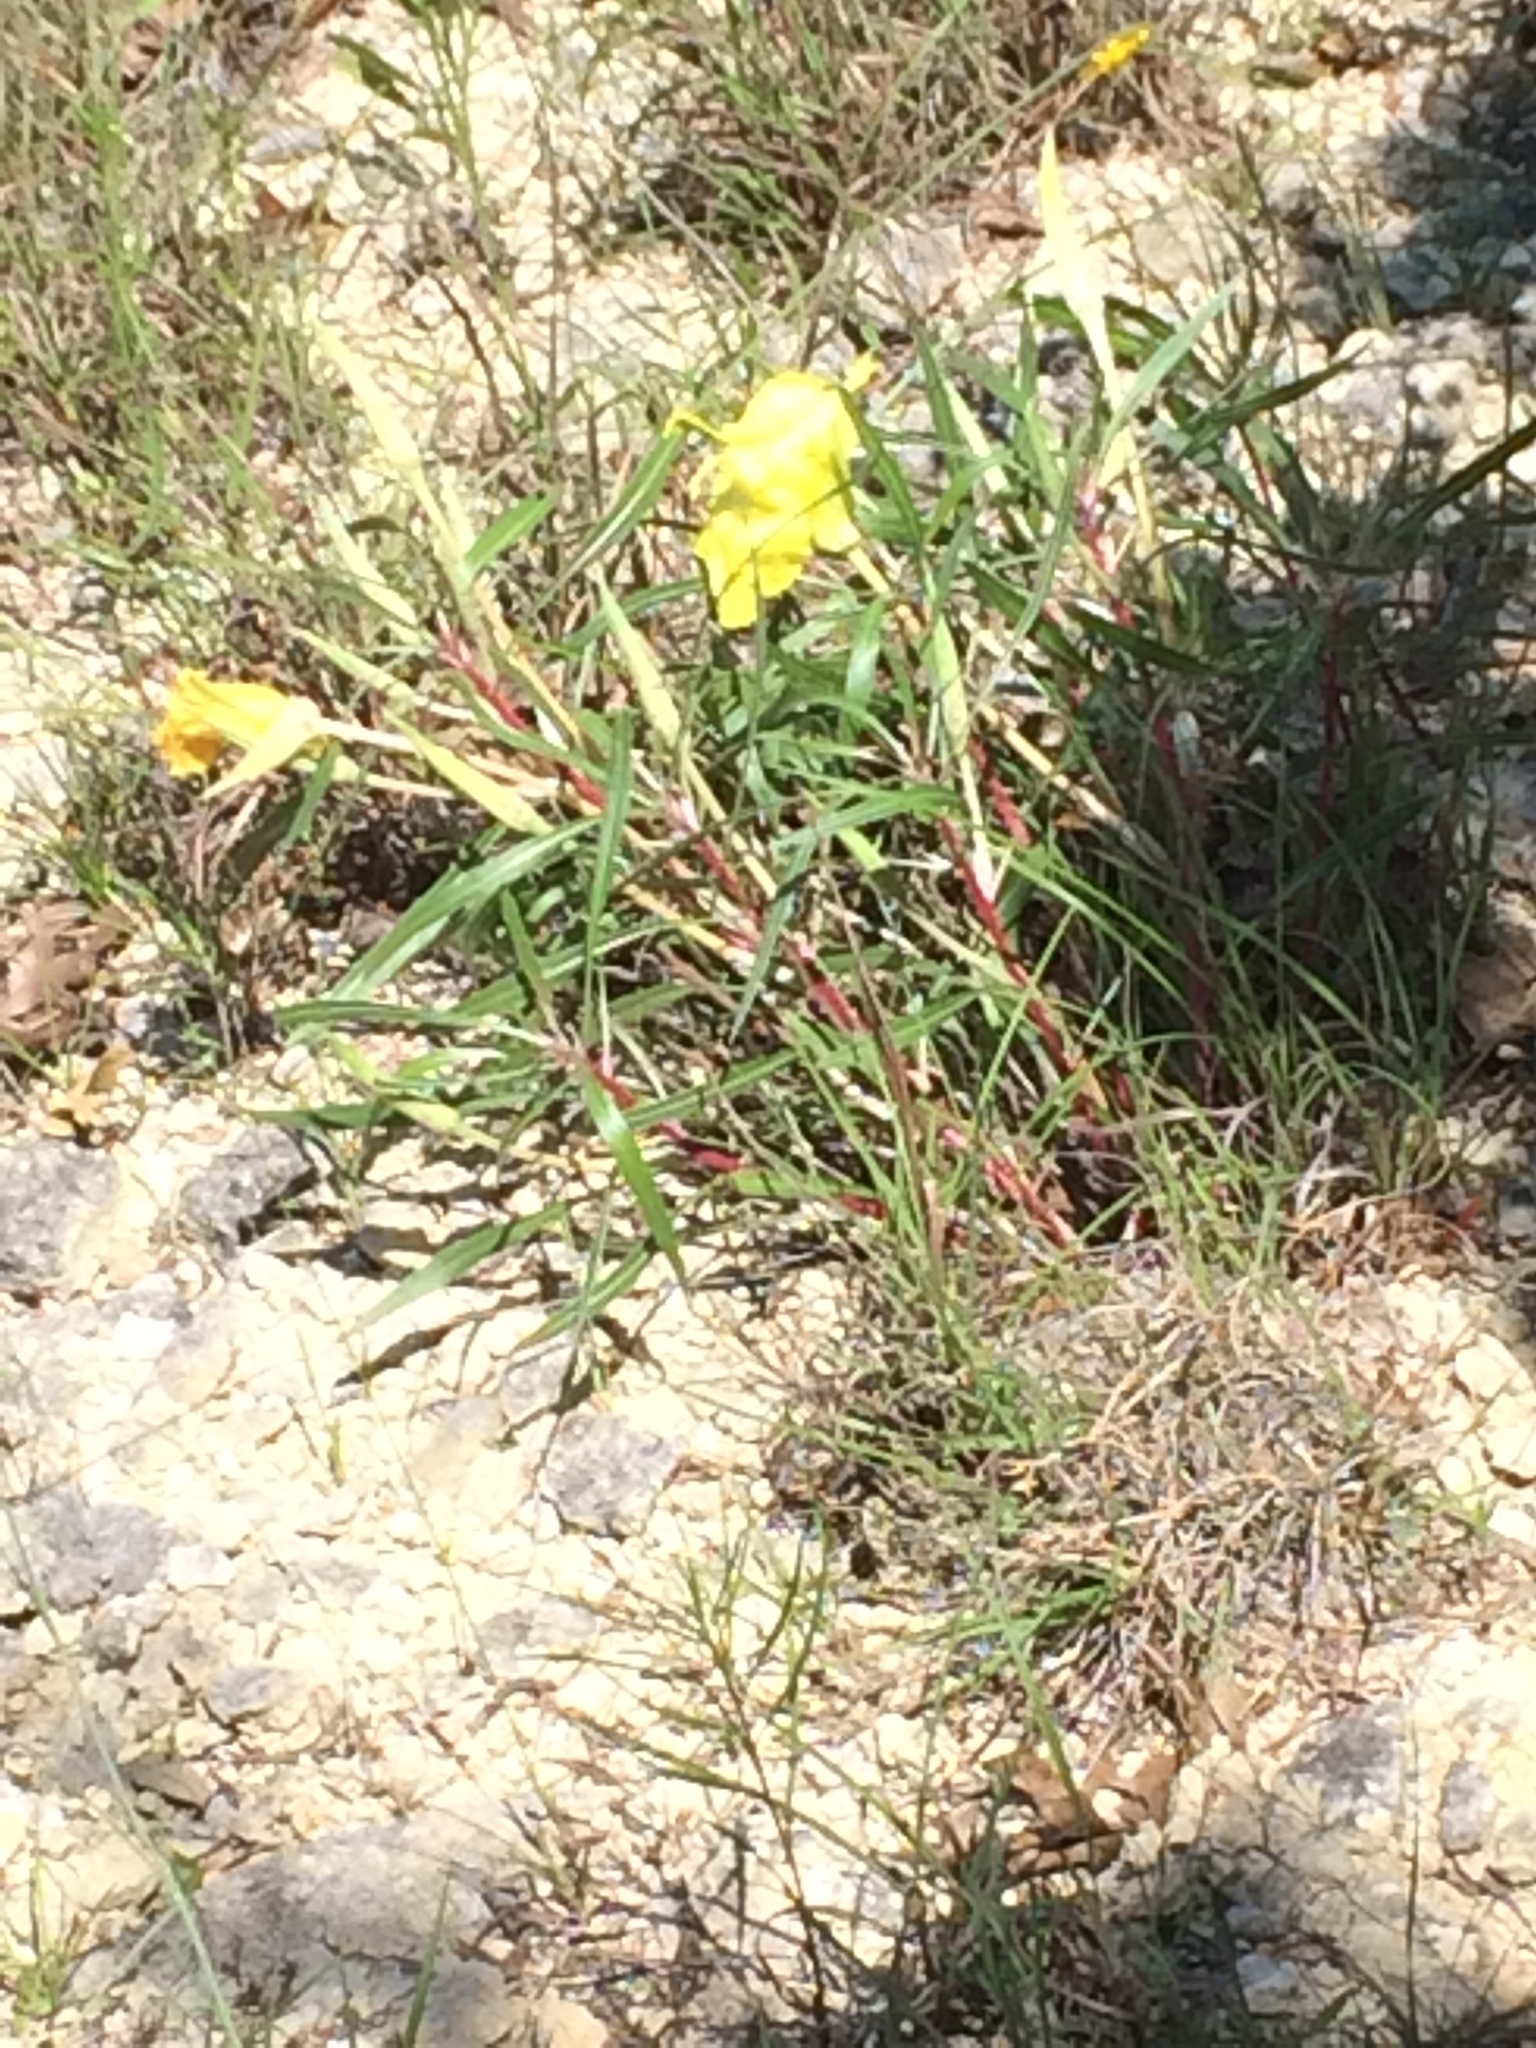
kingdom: Plantae
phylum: Tracheophyta
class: Magnoliopsida
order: Myrtales
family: Onagraceae
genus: Oenothera
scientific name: Oenothera macrocarpa
